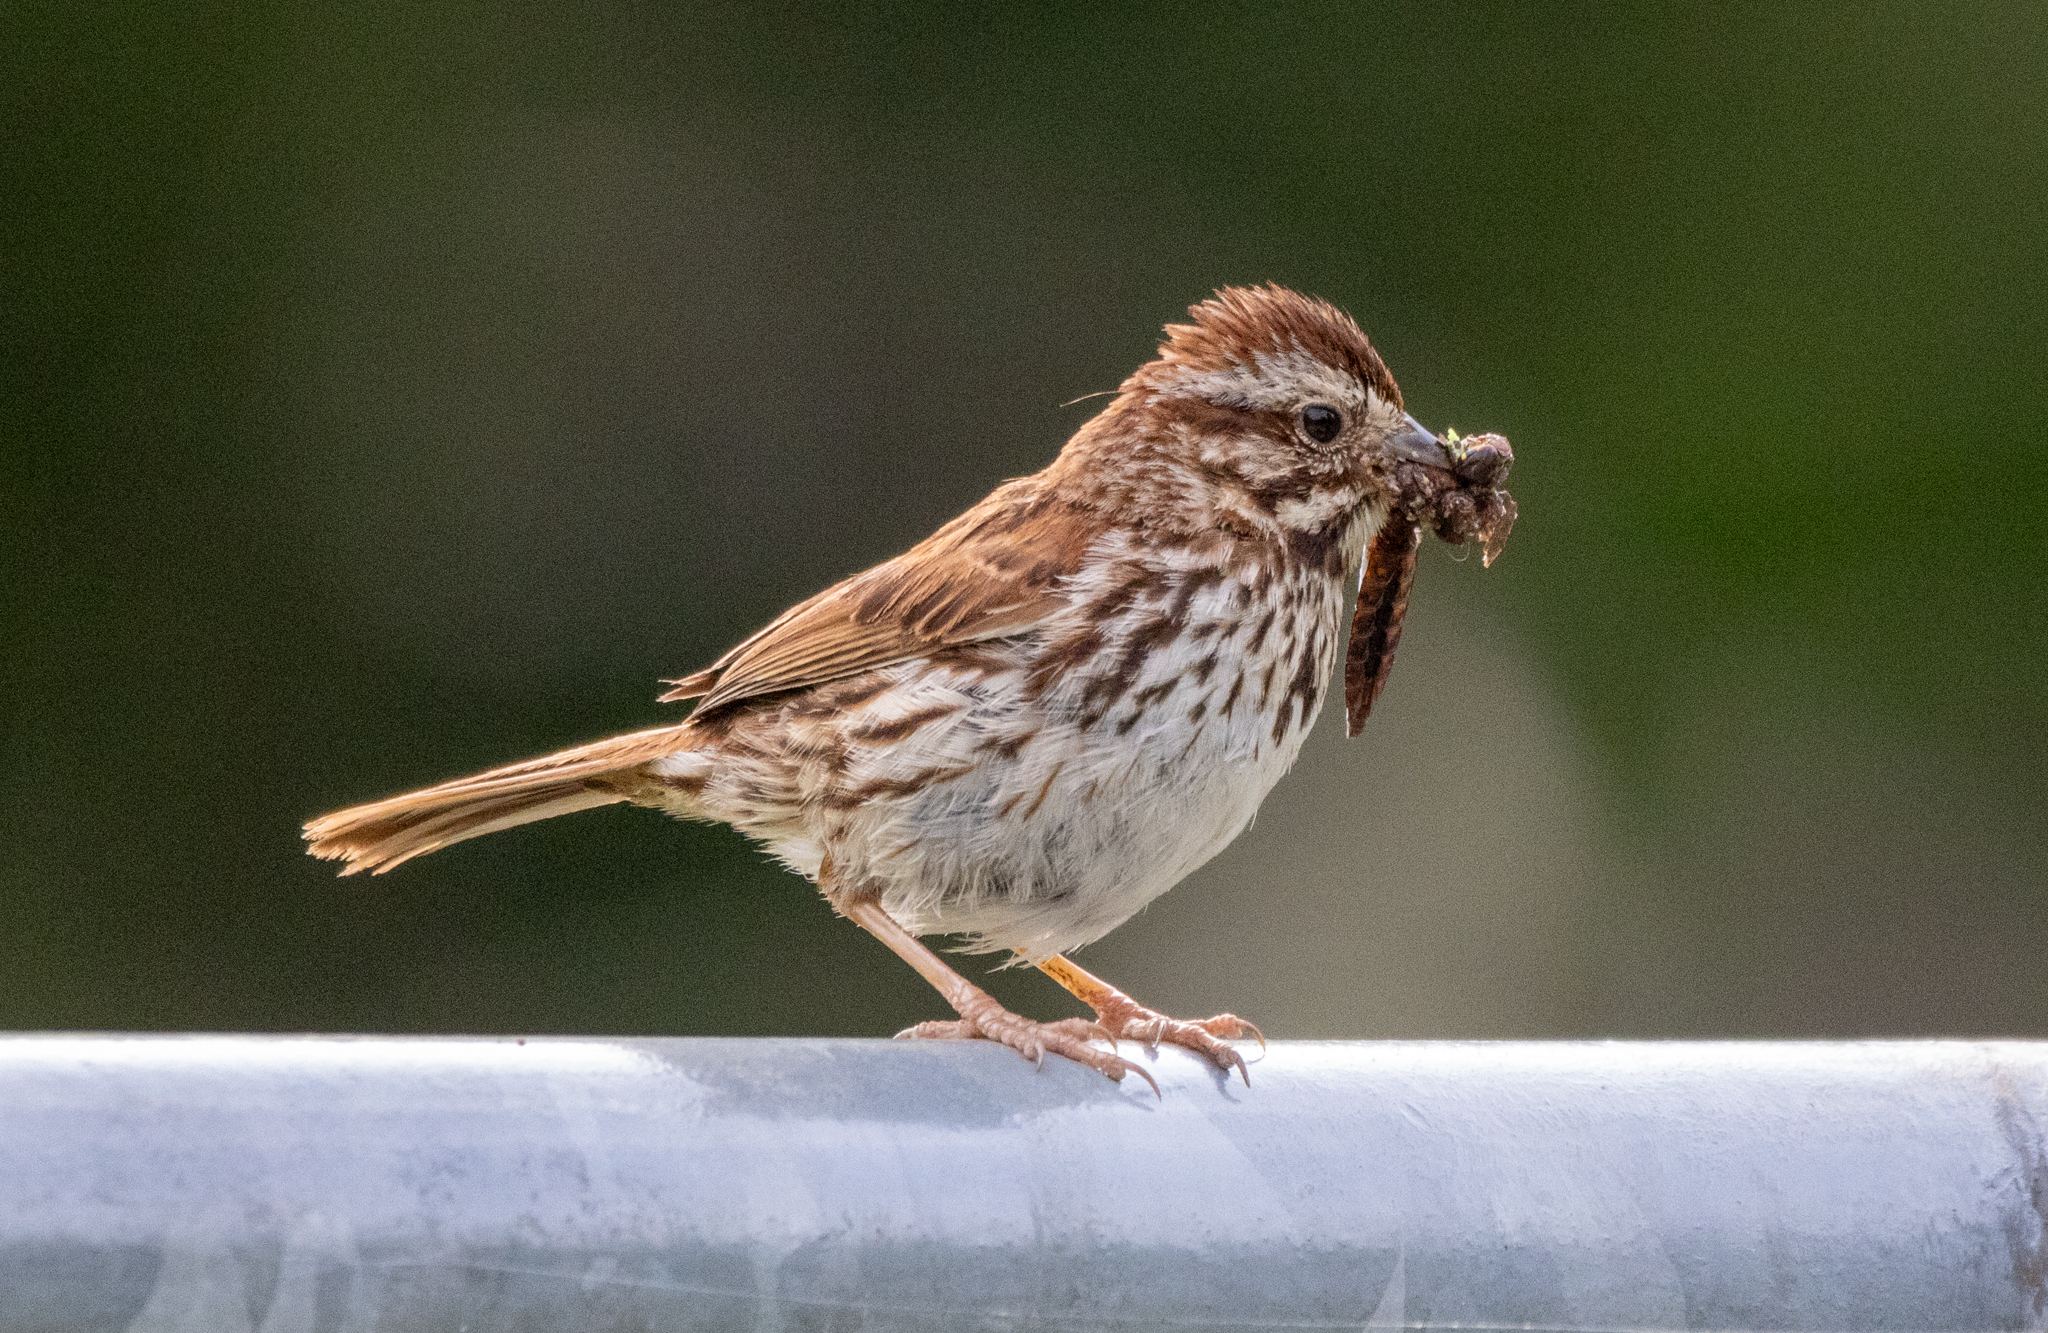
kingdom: Animalia
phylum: Chordata
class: Aves
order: Passeriformes
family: Passerellidae
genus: Melospiza
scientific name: Melospiza melodia
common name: Song sparrow
